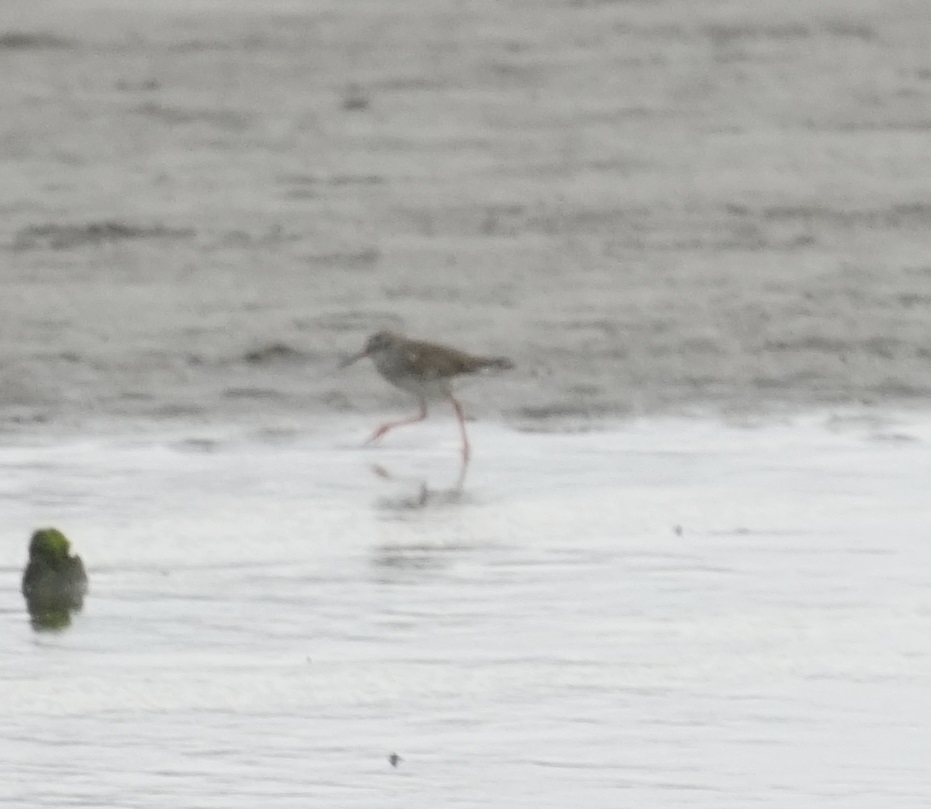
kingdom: Animalia
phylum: Chordata
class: Aves
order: Charadriiformes
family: Scolopacidae
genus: Tringa
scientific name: Tringa totanus
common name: Common redshank
